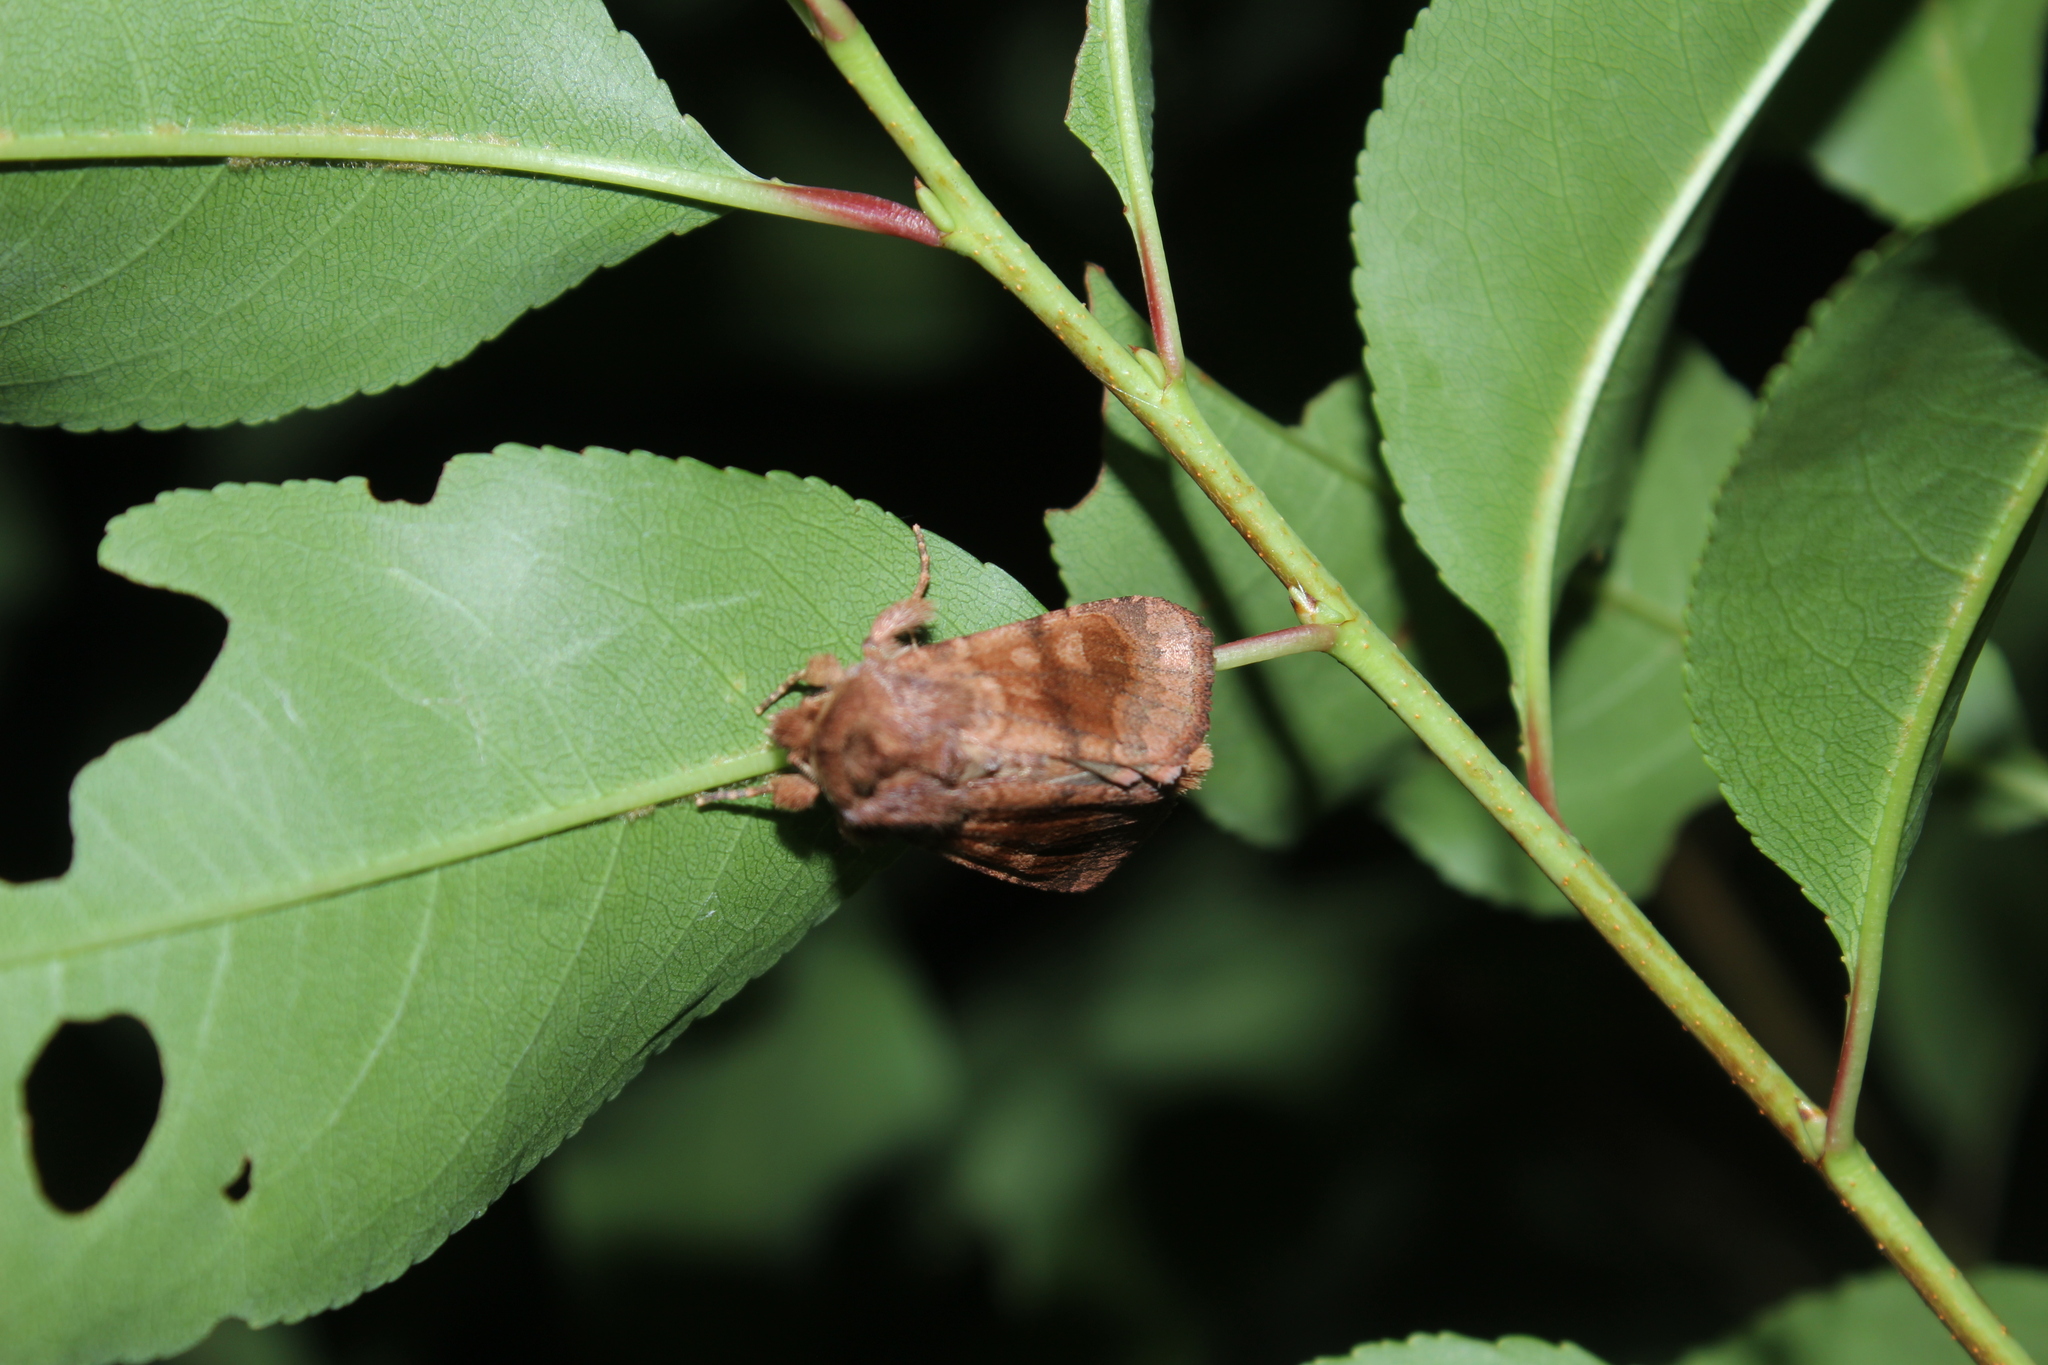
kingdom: Animalia
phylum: Arthropoda
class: Insecta
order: Lepidoptera
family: Noctuidae
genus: Nephelodes
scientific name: Nephelodes minians
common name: Bronzed cutworm
